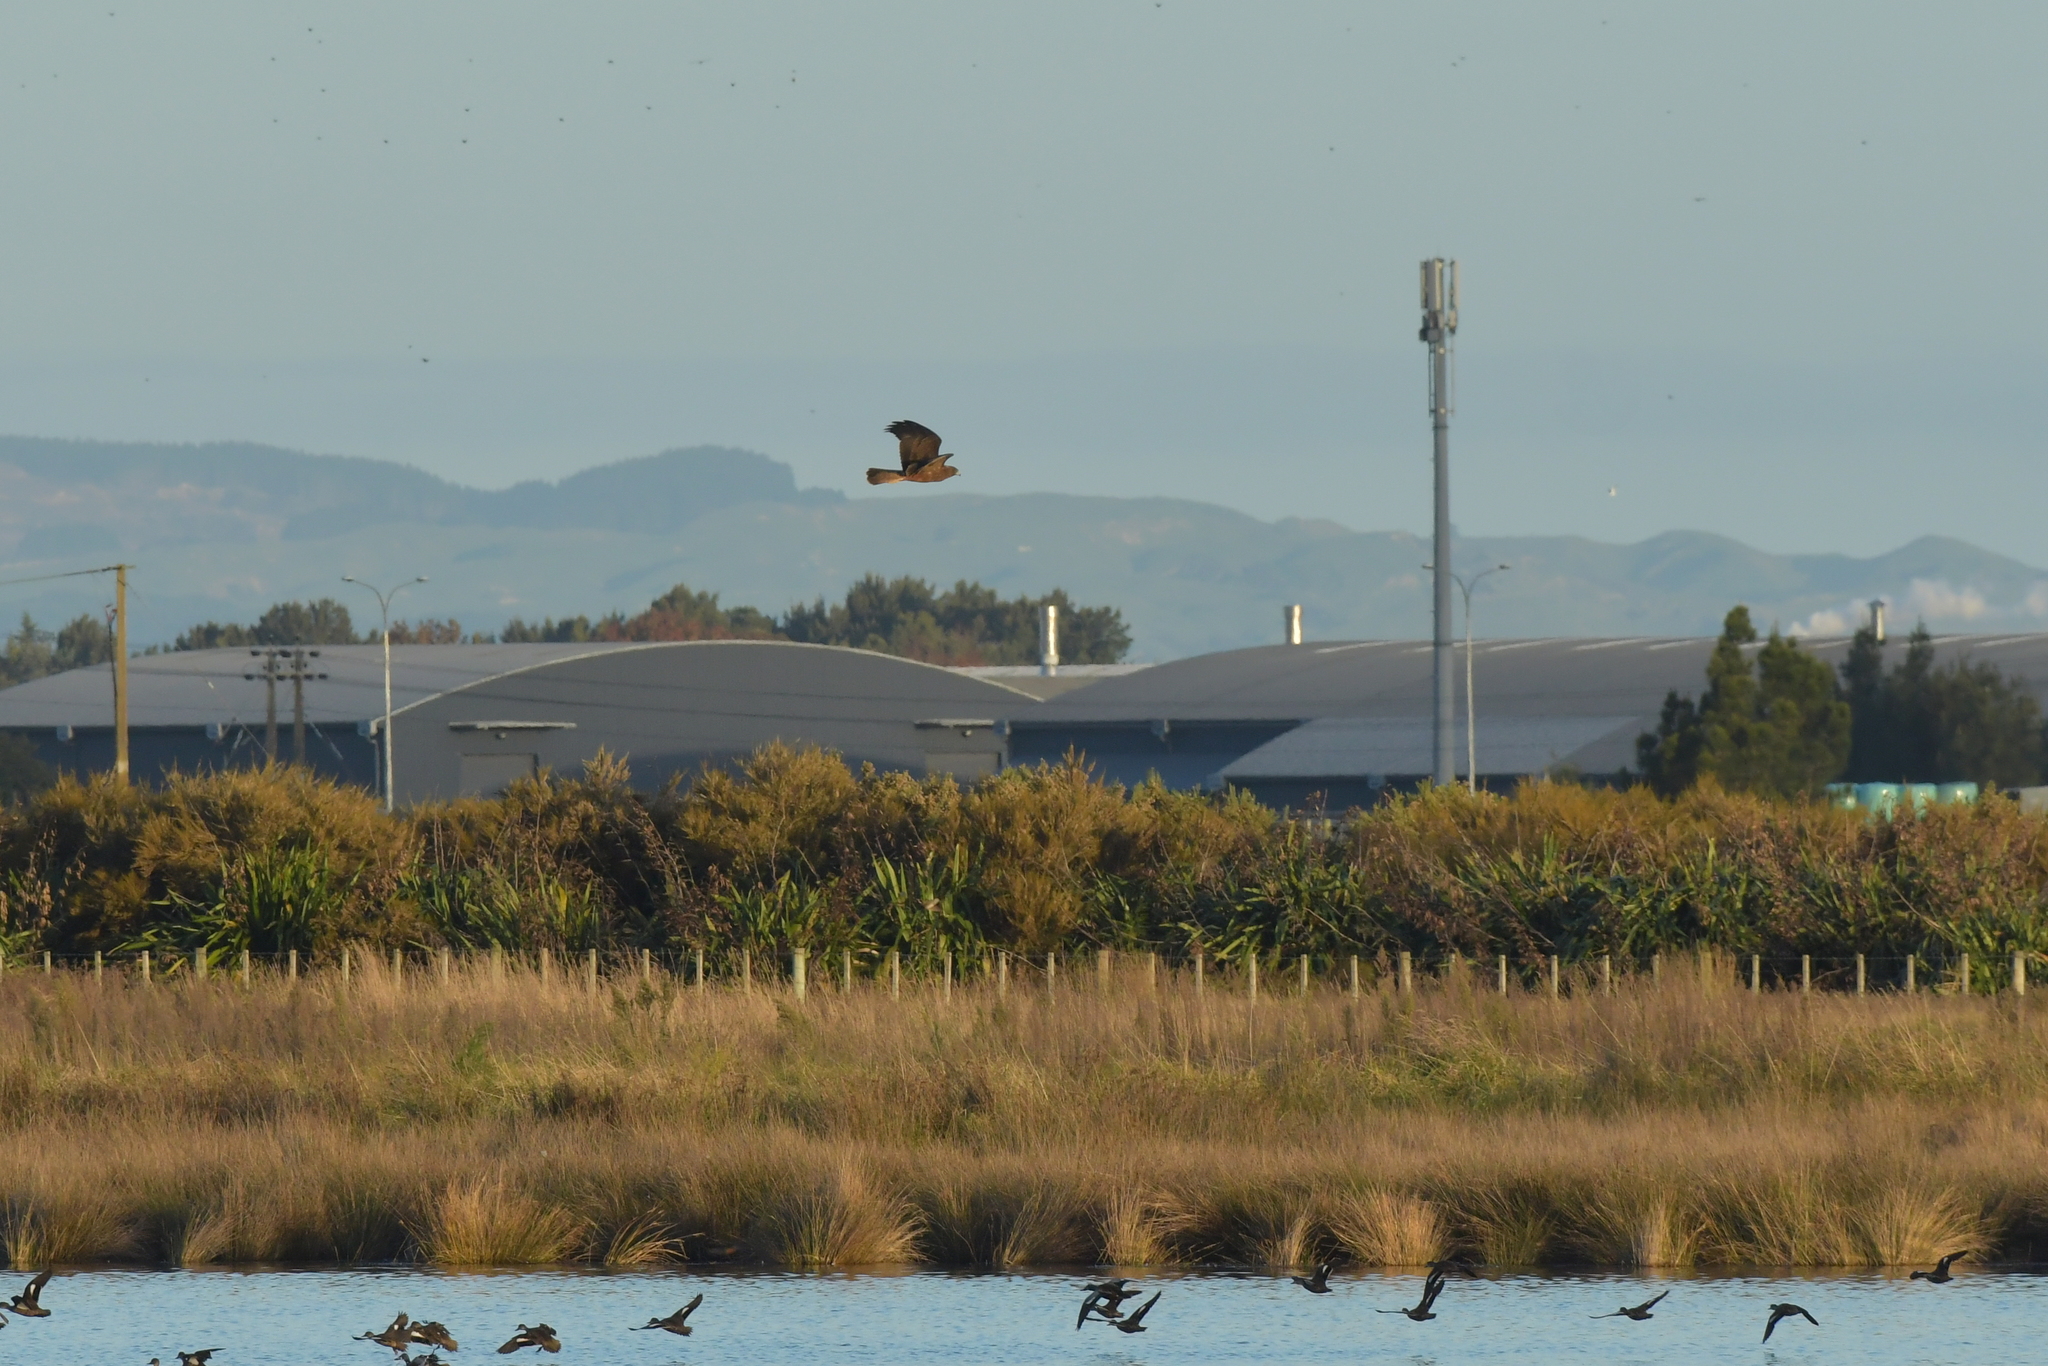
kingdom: Animalia
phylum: Chordata
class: Aves
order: Accipitriformes
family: Accipitridae
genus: Circus
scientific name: Circus approximans
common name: Swamp harrier
